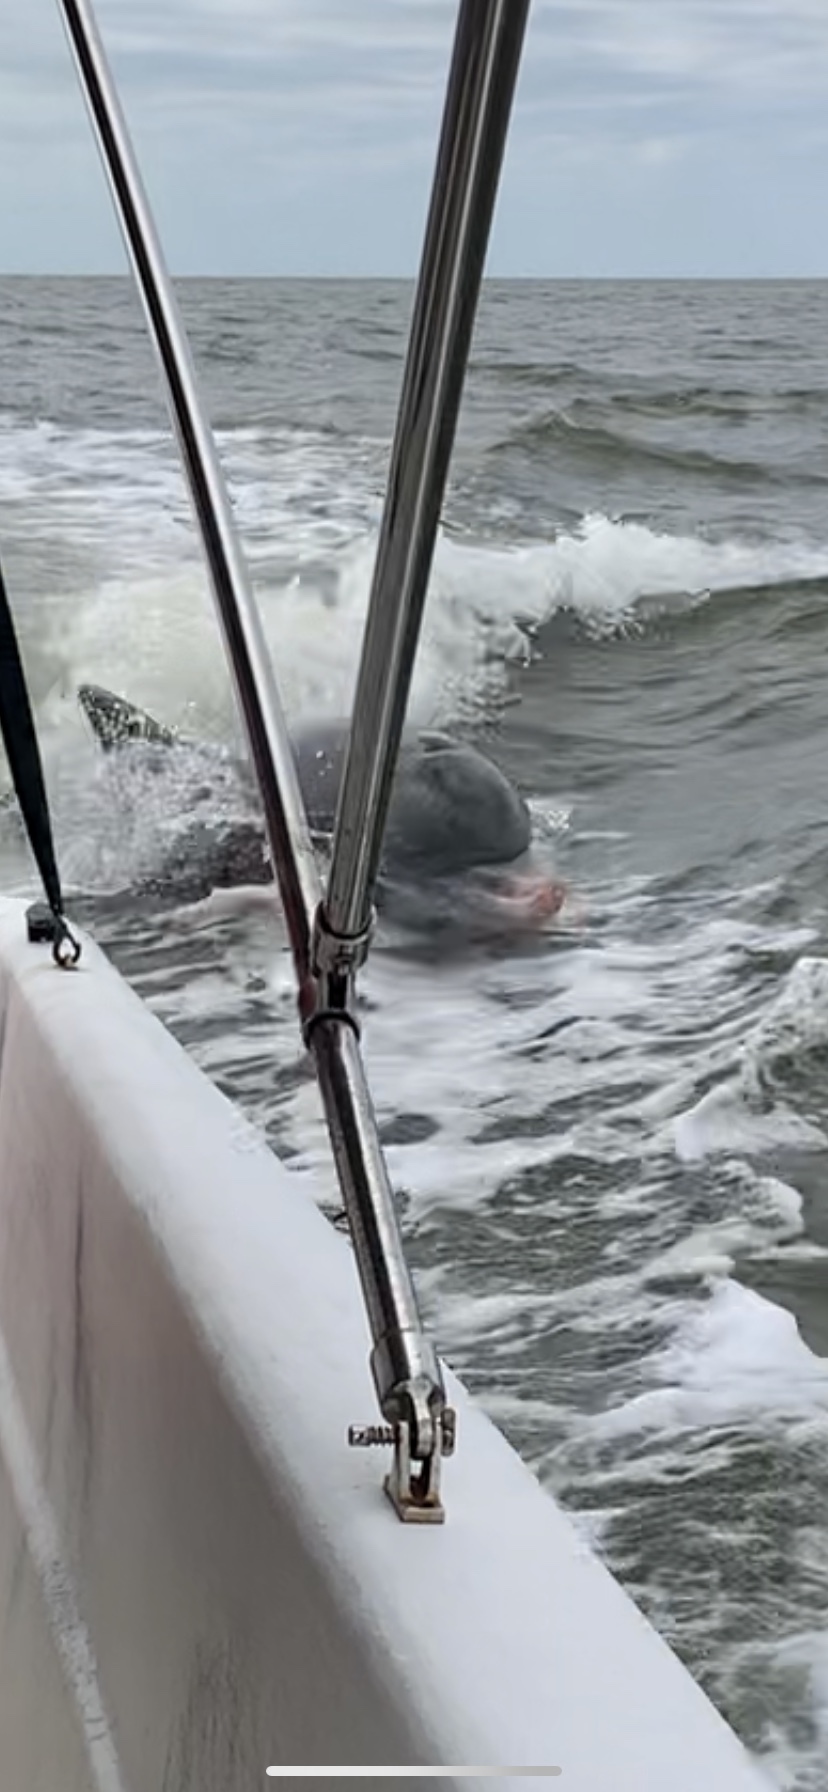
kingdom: Animalia
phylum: Chordata
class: Mammalia
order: Cetacea
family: Delphinidae
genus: Tursiops
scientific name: Tursiops truncatus
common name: Bottlenose dolphin
